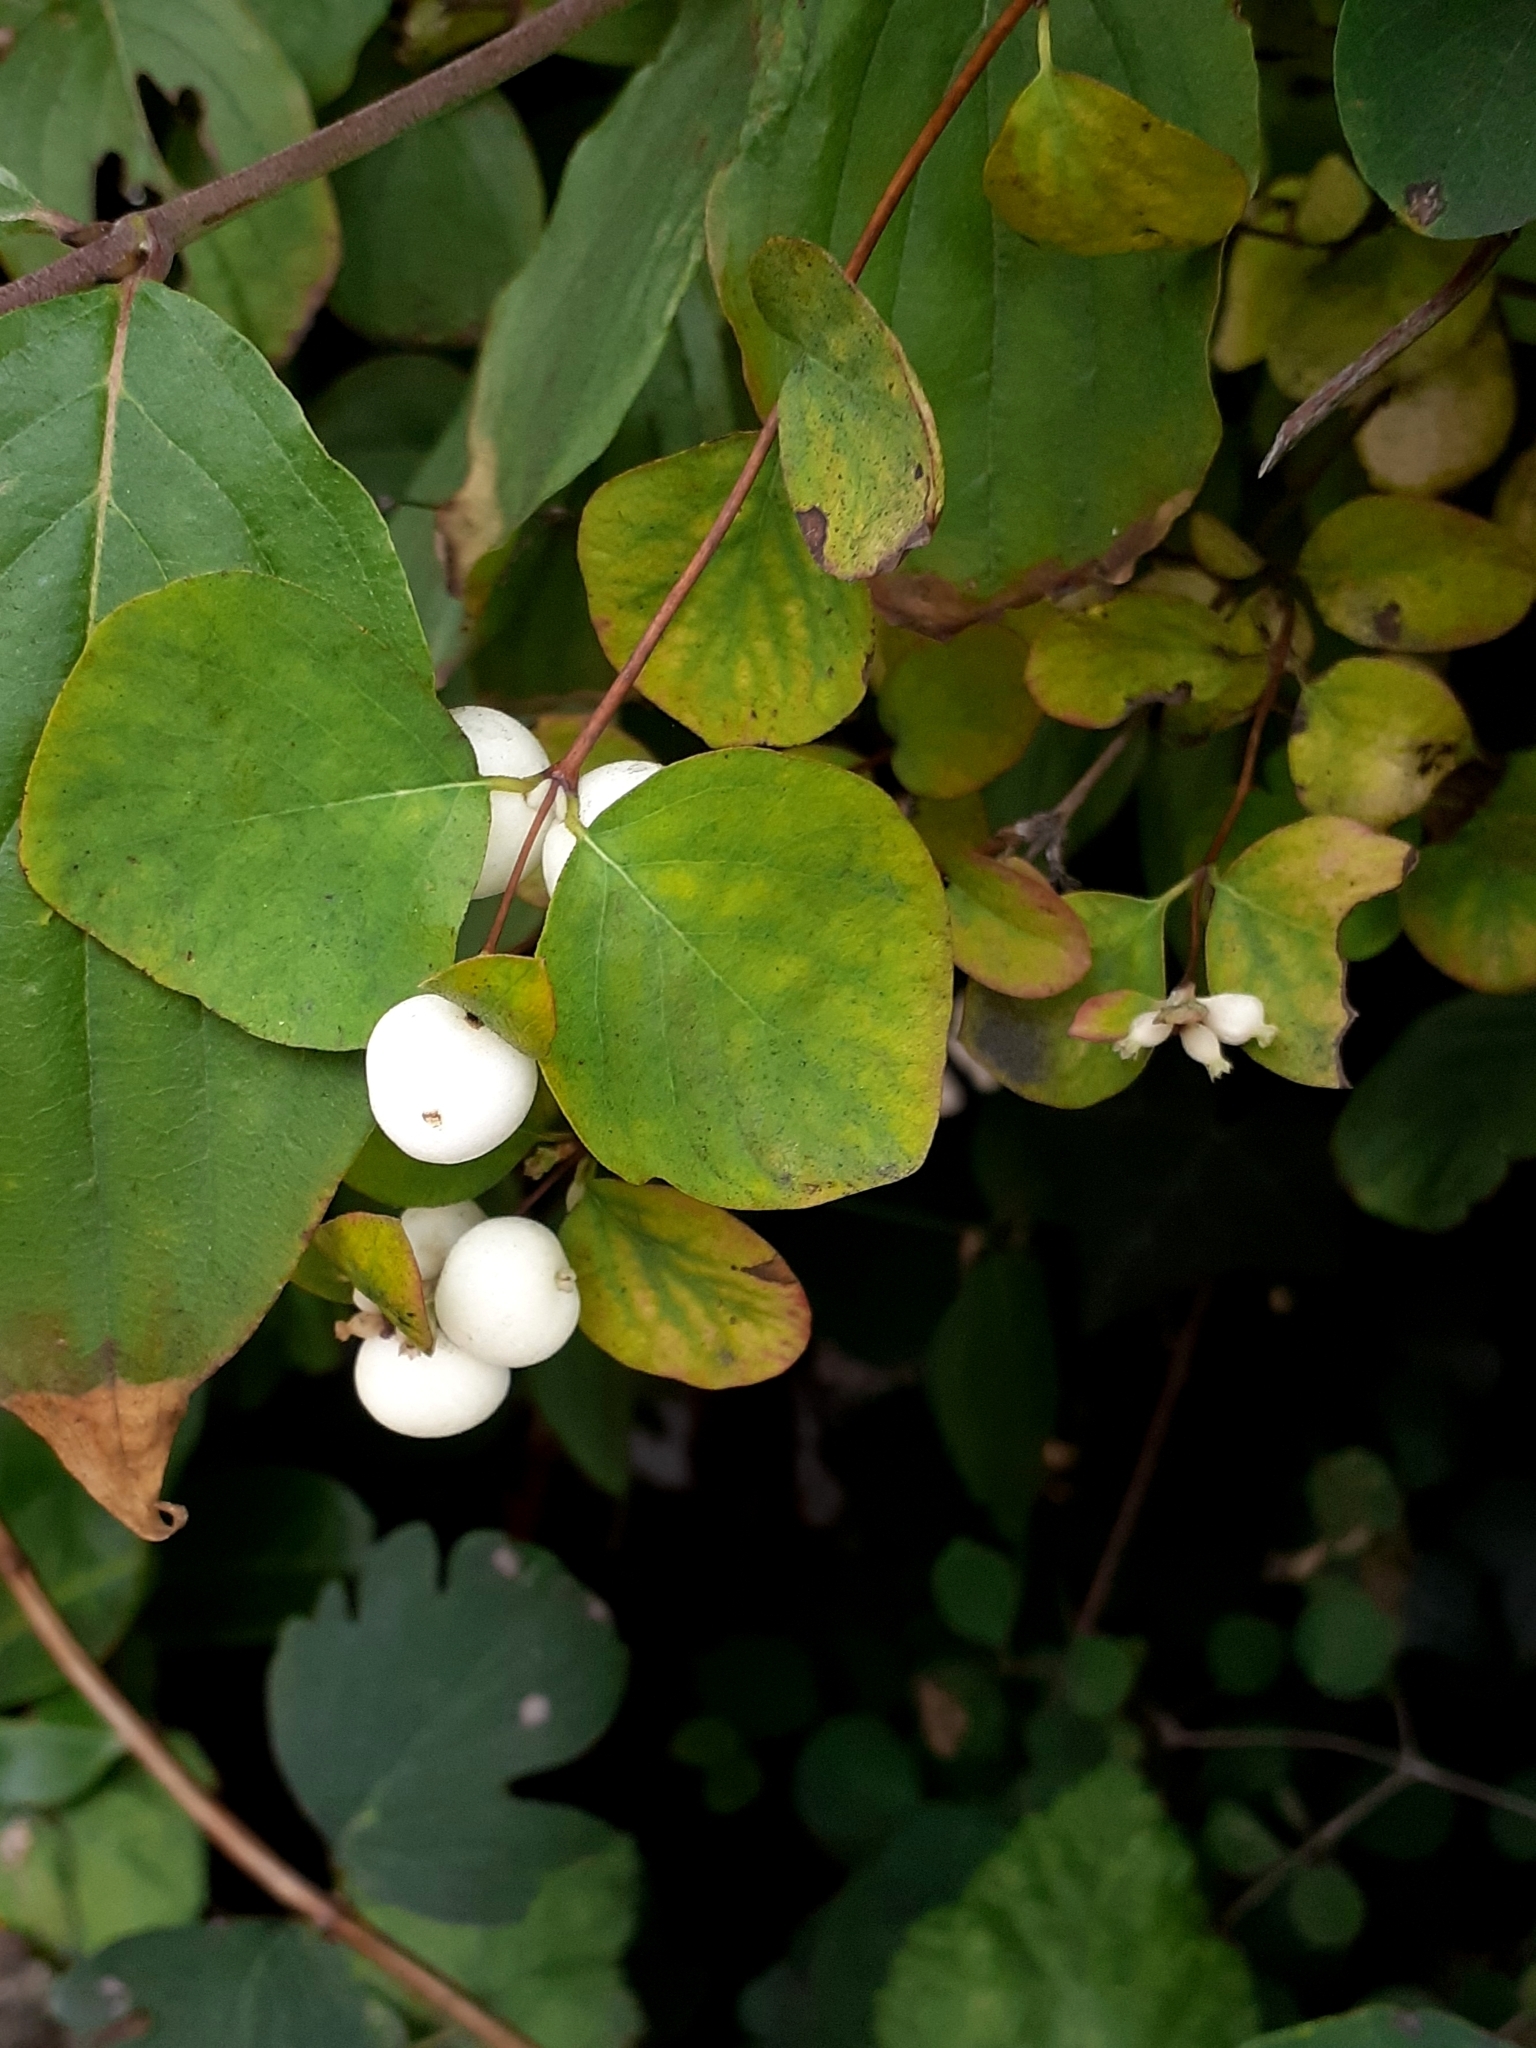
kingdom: Plantae
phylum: Tracheophyta
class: Magnoliopsida
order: Dipsacales
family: Caprifoliaceae
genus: Symphoricarpos
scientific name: Symphoricarpos albus
